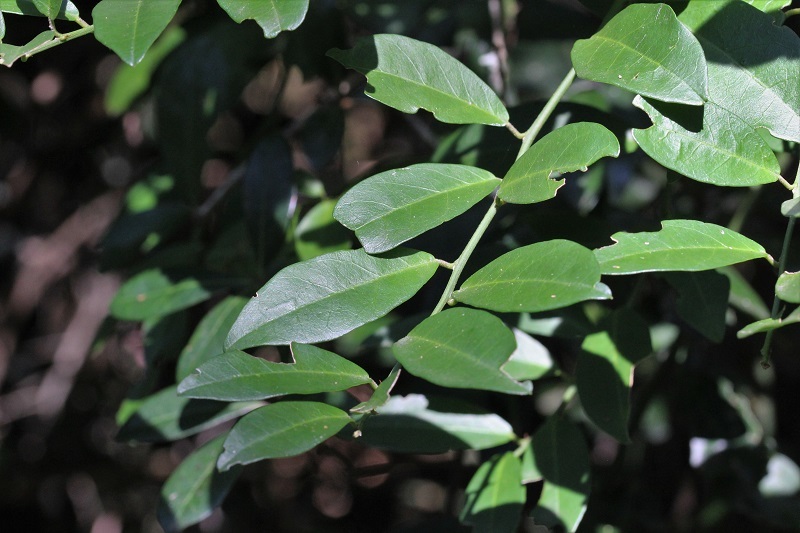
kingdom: Plantae
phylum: Tracheophyta
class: Magnoliopsida
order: Brassicales
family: Capparaceae
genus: Capparis
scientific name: Capparis sepiaria
